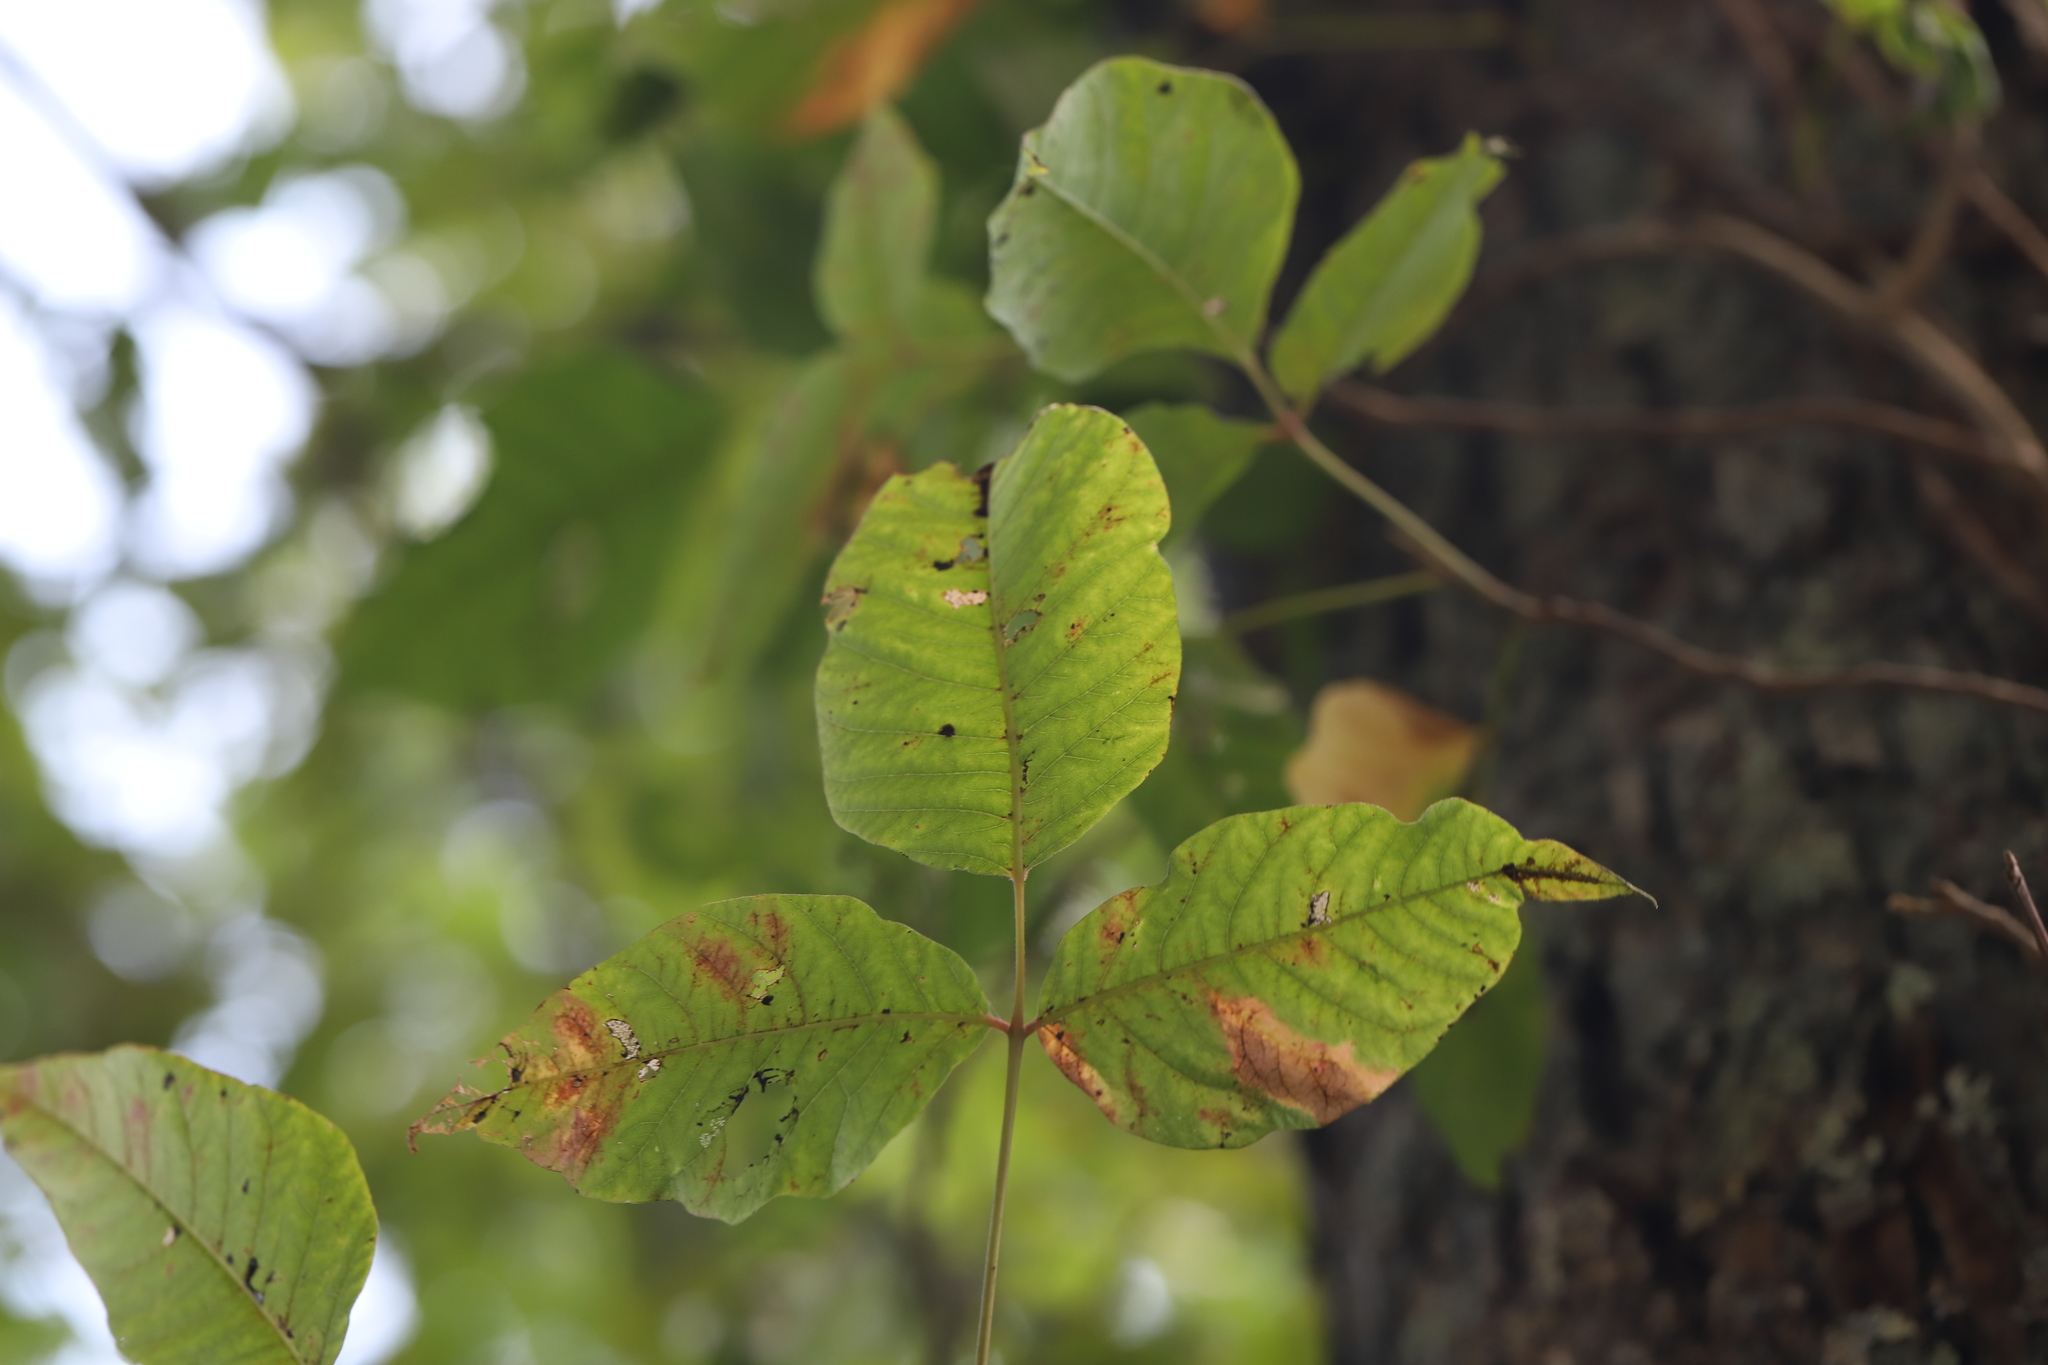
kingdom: Plantae
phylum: Tracheophyta
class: Magnoliopsida
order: Sapindales
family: Anacardiaceae
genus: Toxicodendron
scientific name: Toxicodendron radicans
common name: Poison ivy
